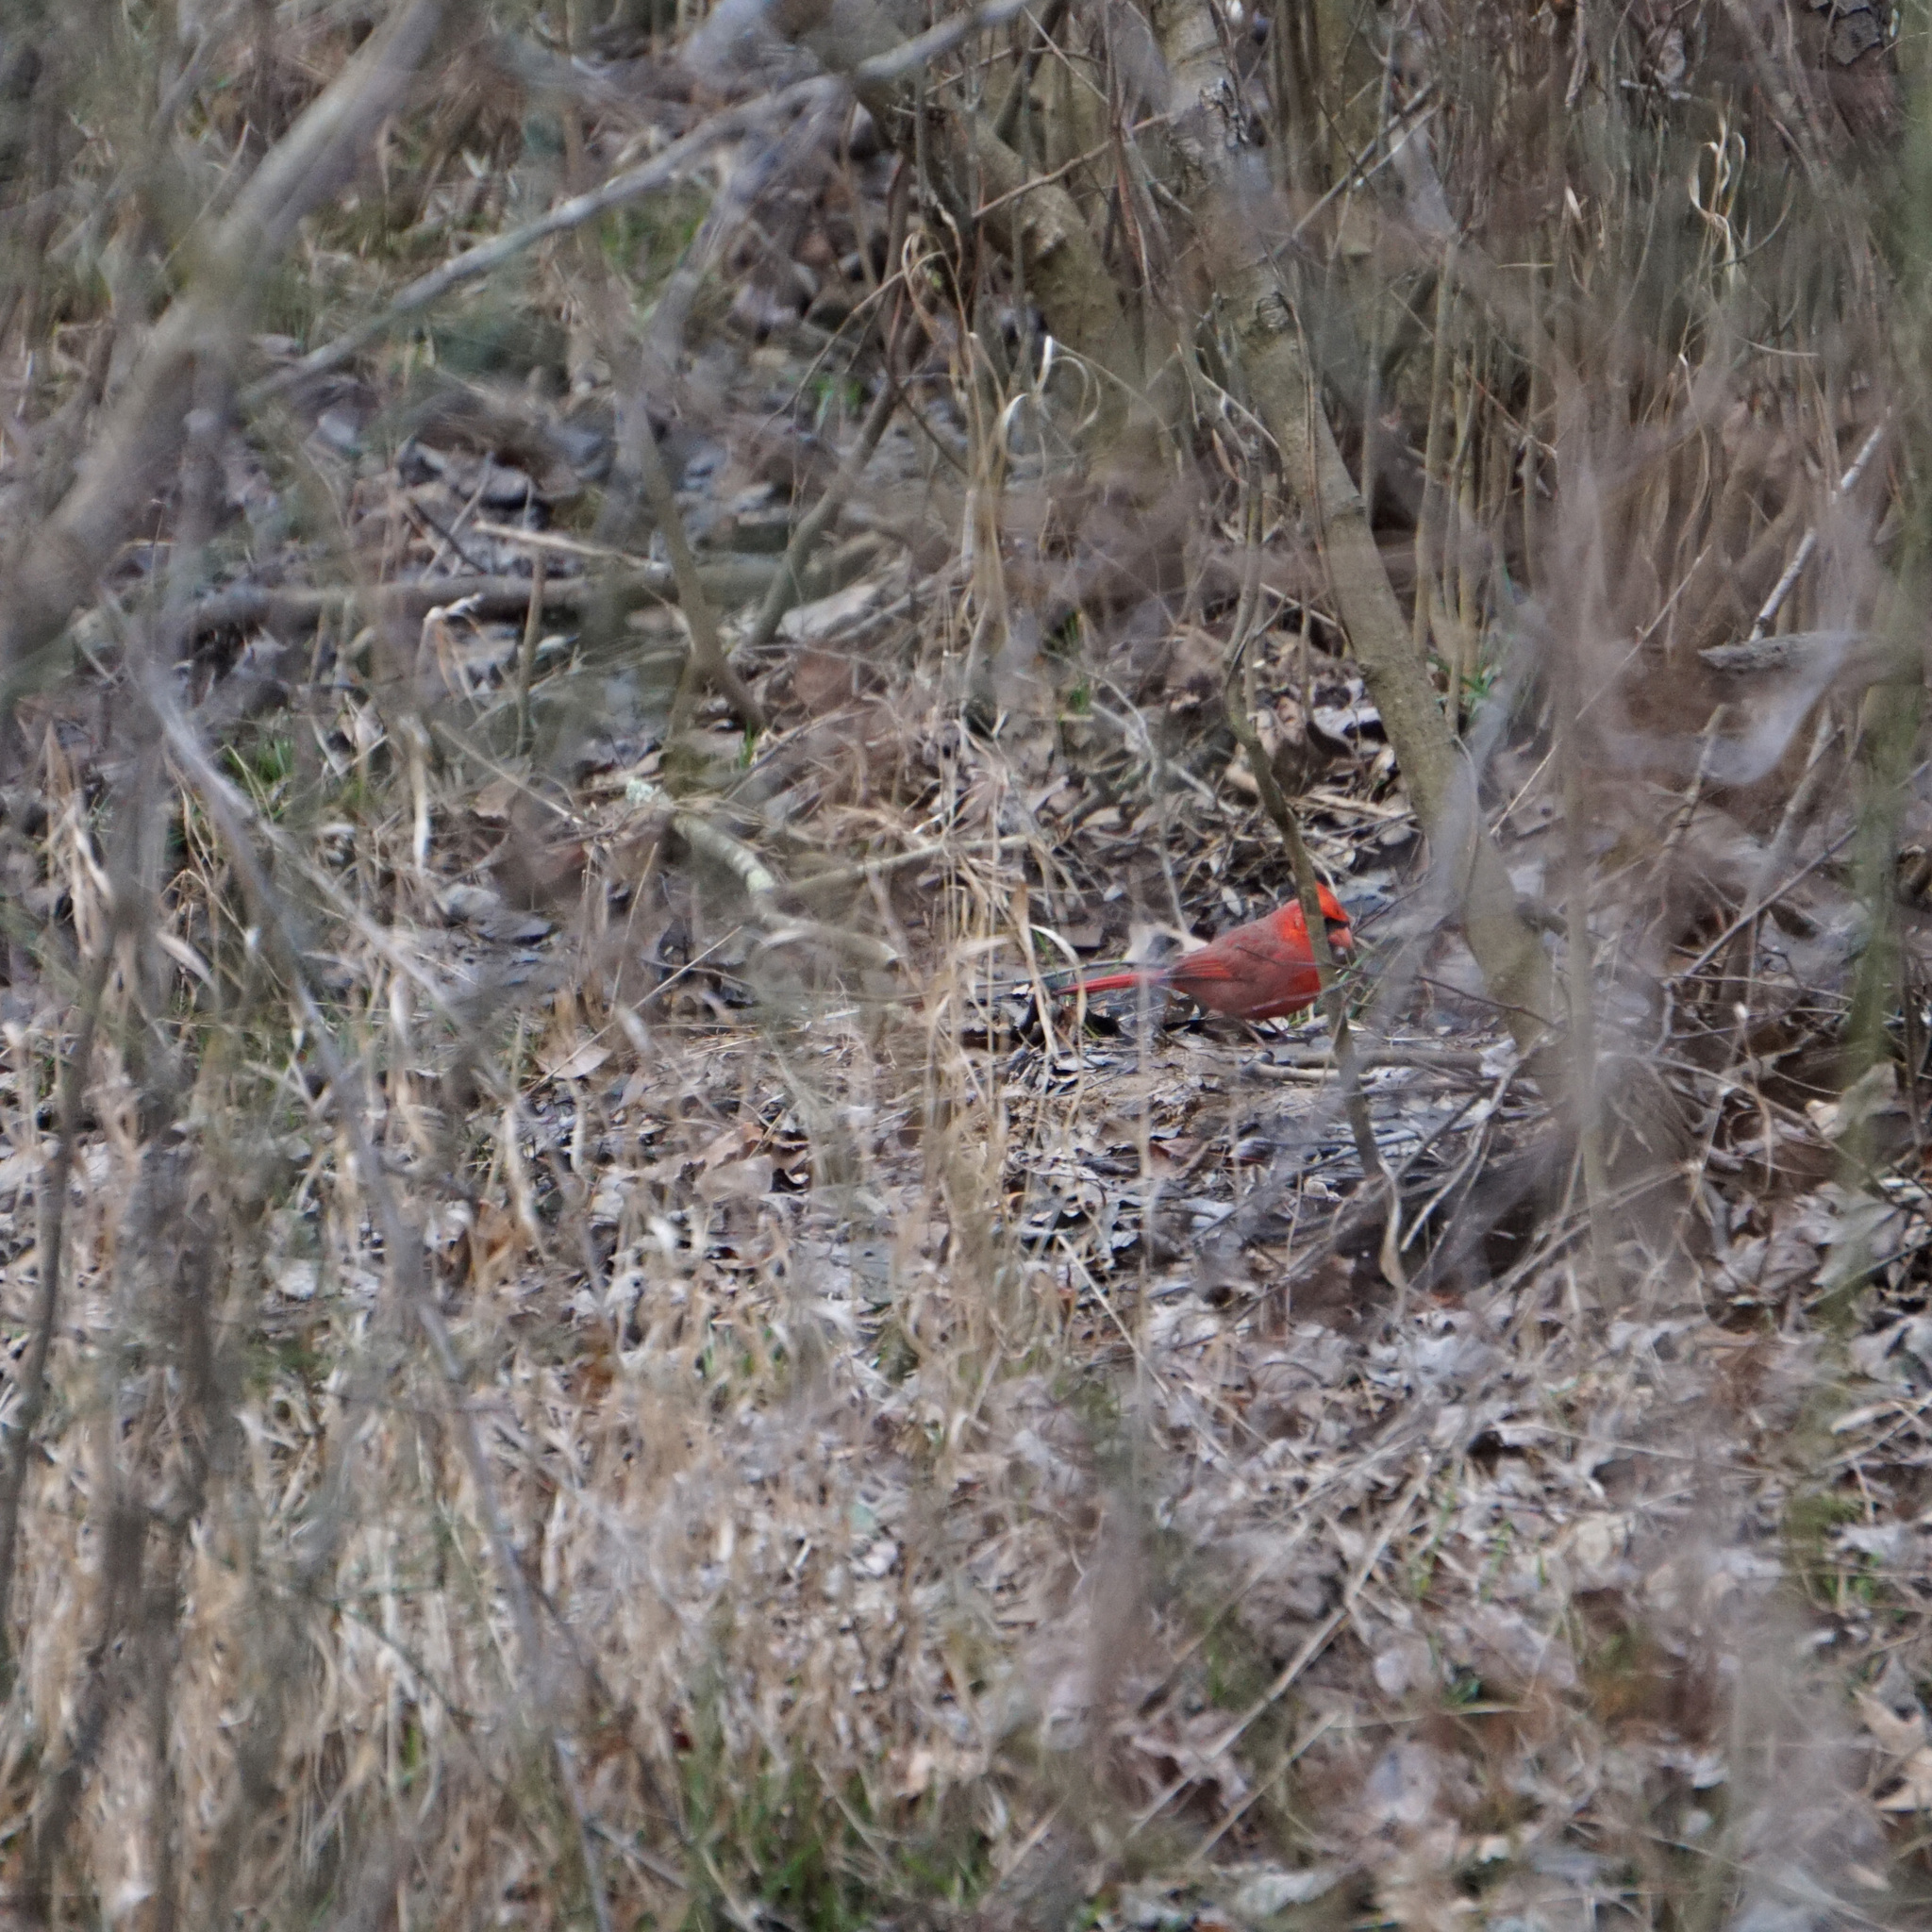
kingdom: Animalia
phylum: Chordata
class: Aves
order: Passeriformes
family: Cardinalidae
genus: Cardinalis
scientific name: Cardinalis cardinalis
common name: Northern cardinal
